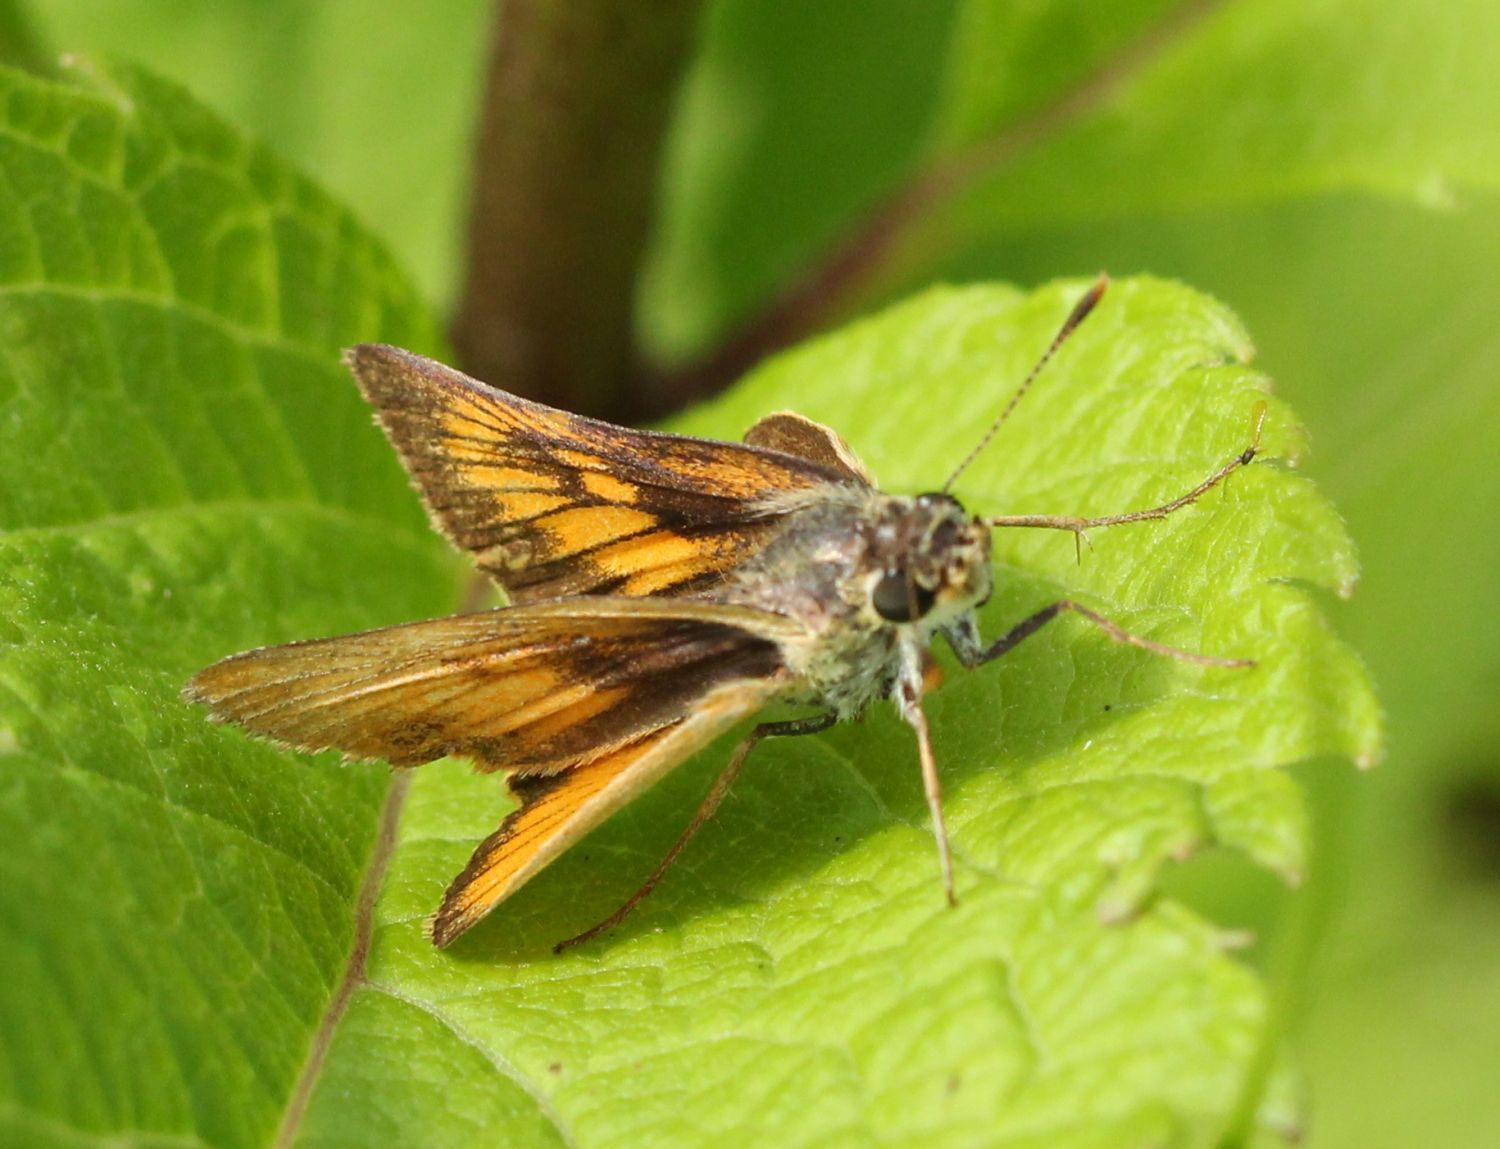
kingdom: Animalia
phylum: Arthropoda
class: Insecta
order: Lepidoptera
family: Hesperiidae
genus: Atrytone
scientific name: Atrytone delaware
